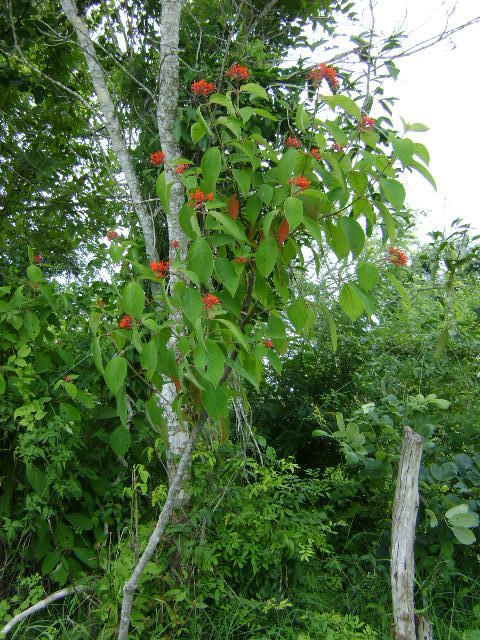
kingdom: Plantae
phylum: Tracheophyta
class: Magnoliopsida
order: Gentianales
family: Rubiaceae
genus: Hamelia
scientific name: Hamelia patens
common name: Redhead
